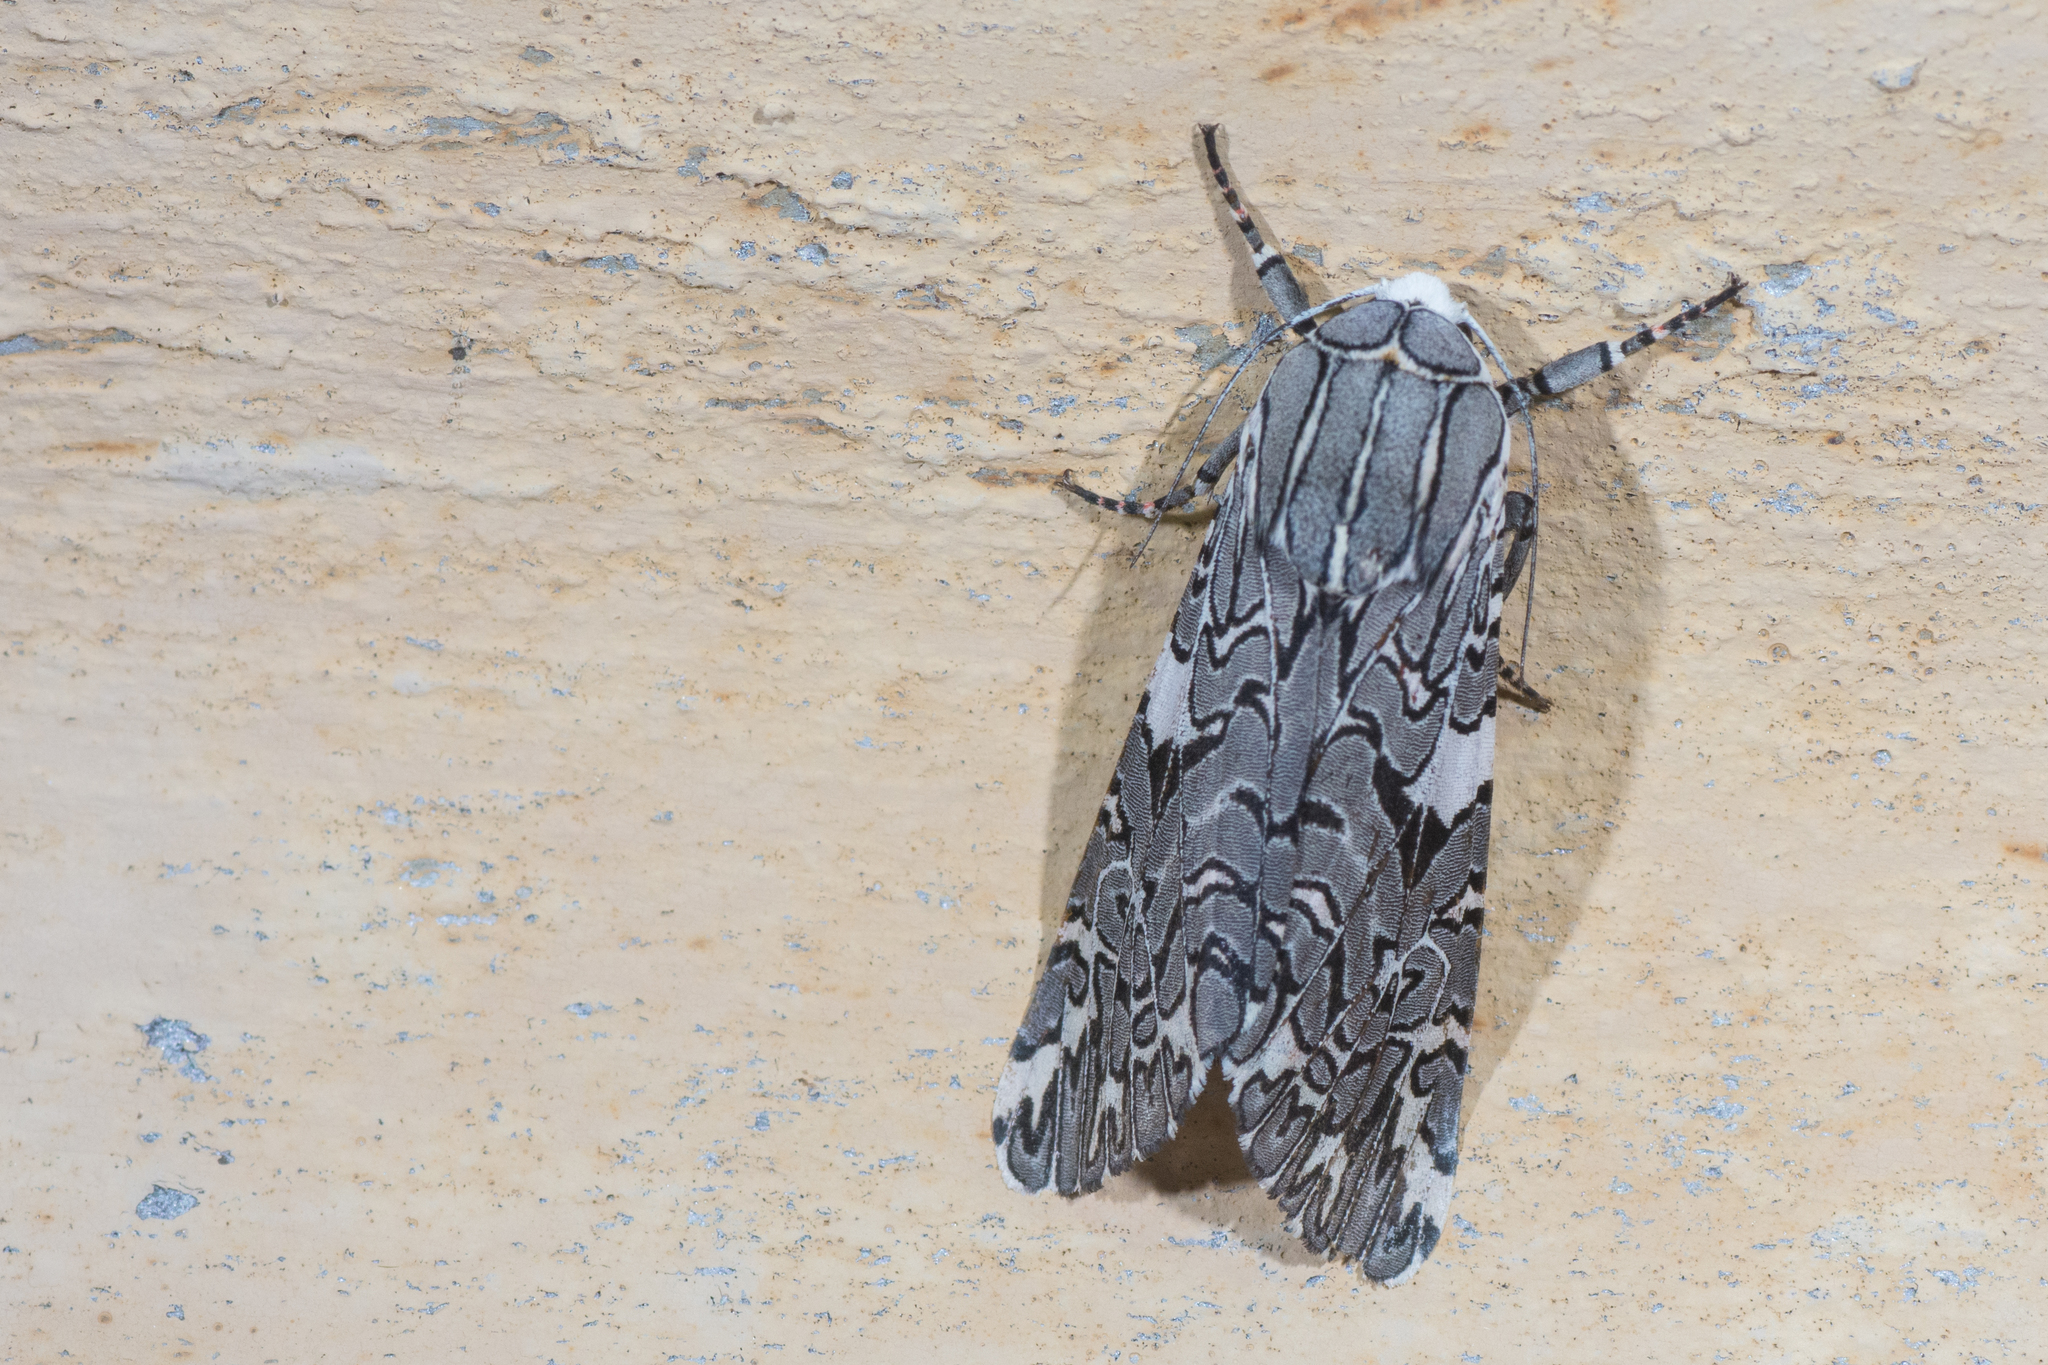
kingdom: Animalia
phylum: Arthropoda
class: Insecta
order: Lepidoptera
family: Erebidae
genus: Arachnis
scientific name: Arachnis picta
